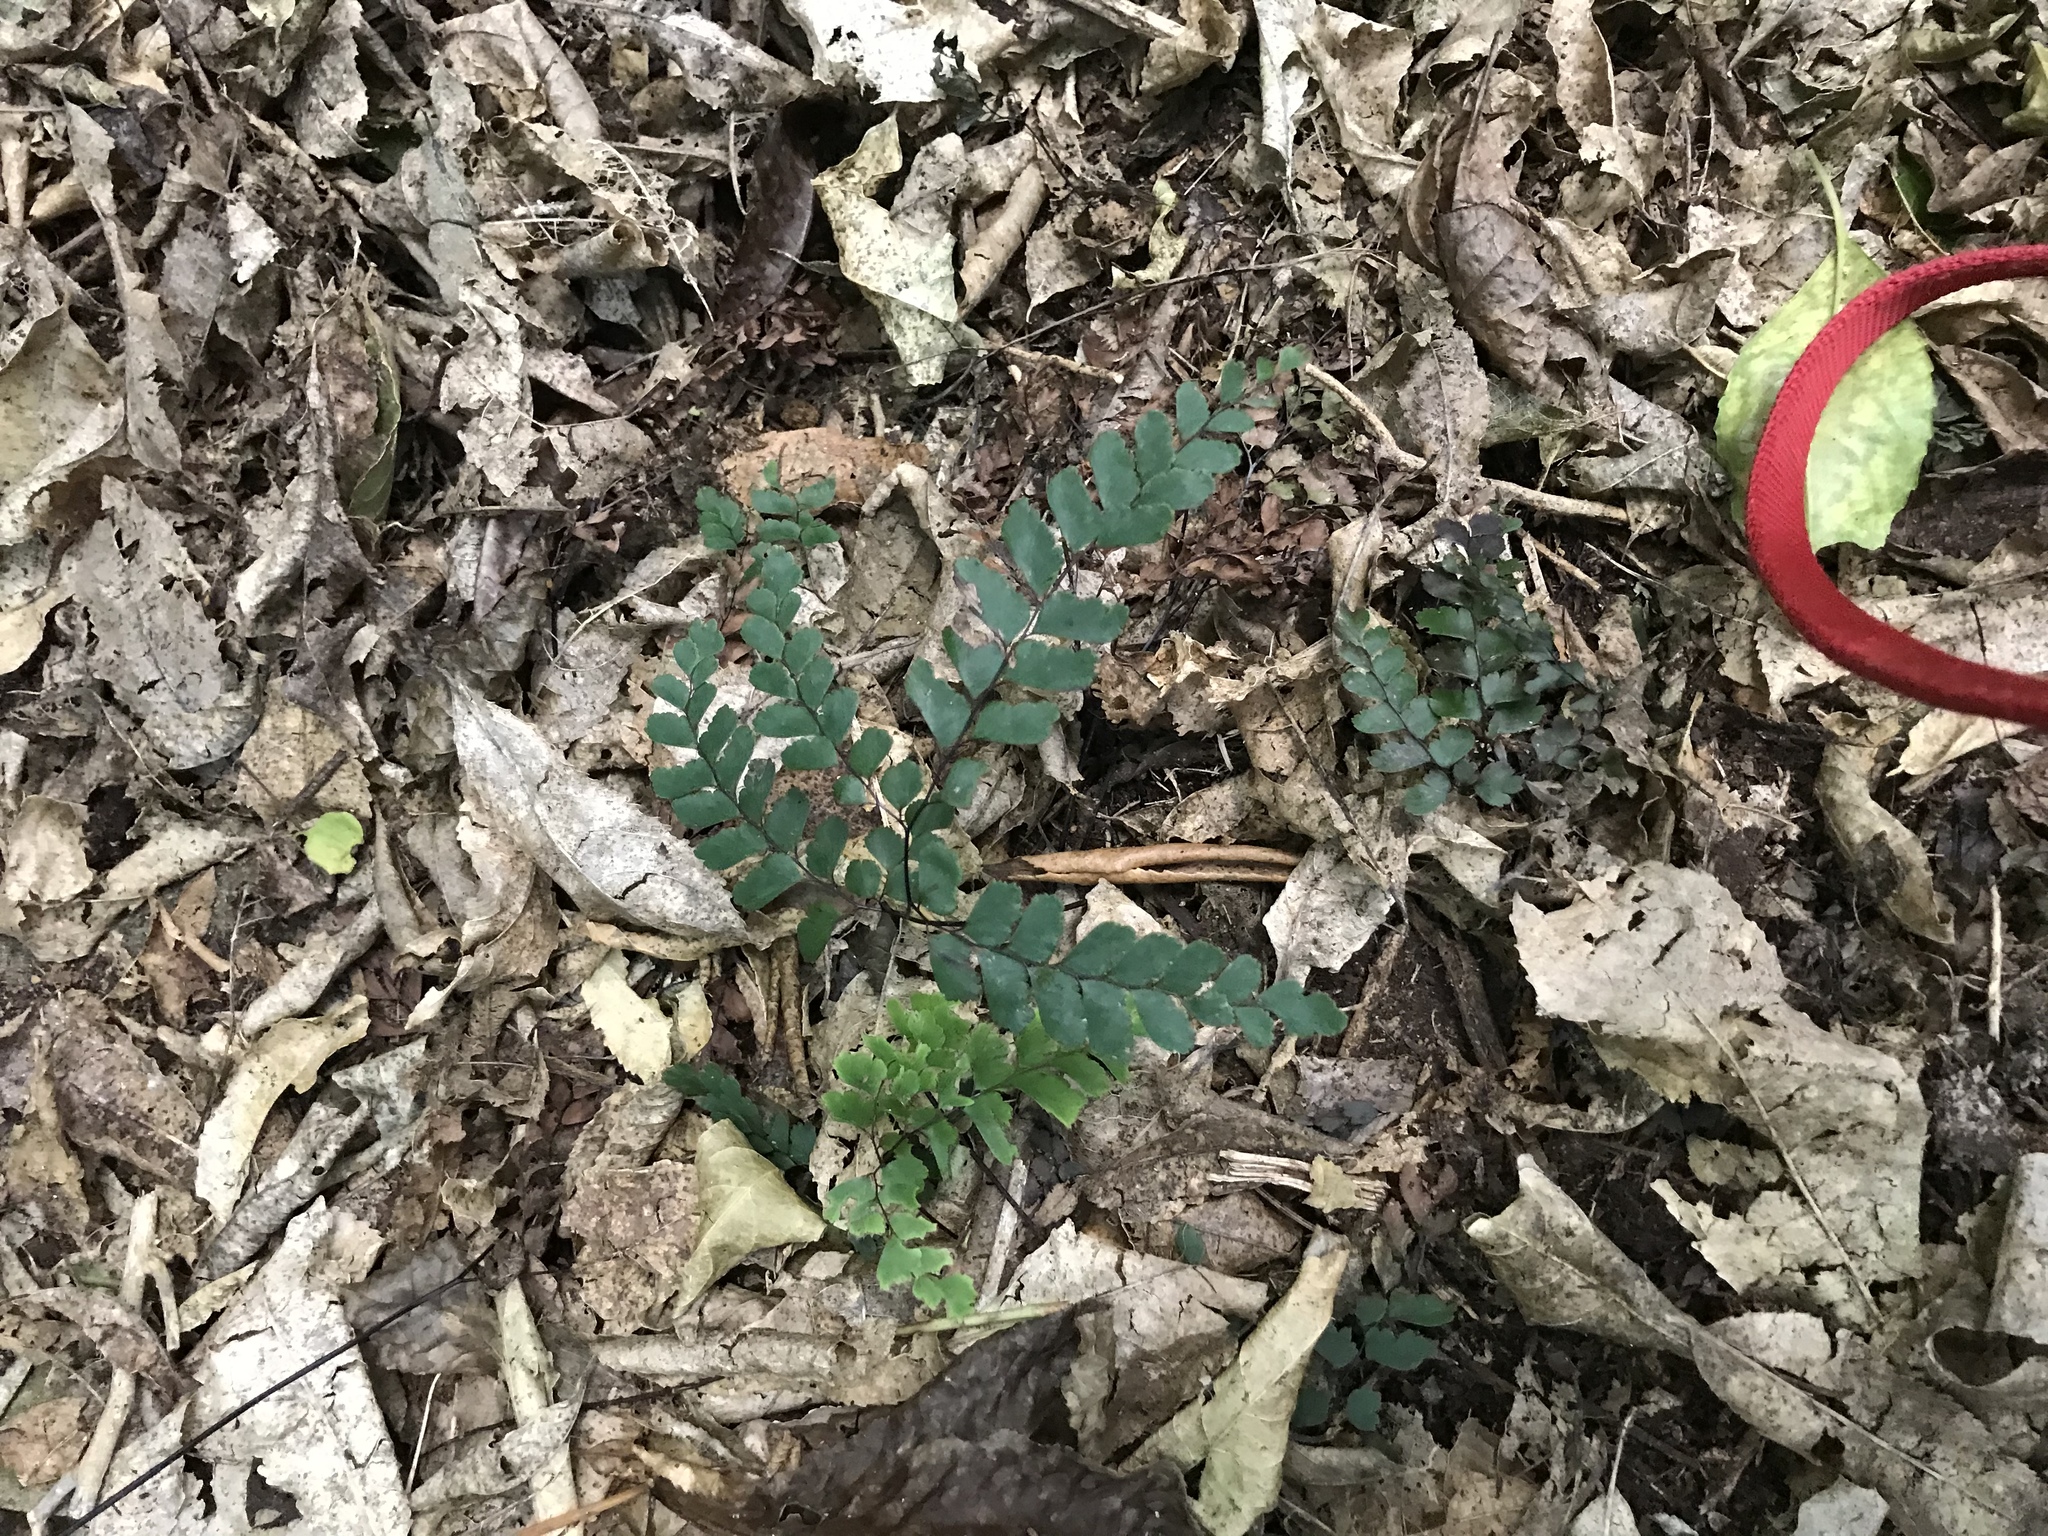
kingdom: Plantae
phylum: Tracheophyta
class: Polypodiopsida
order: Polypodiales
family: Pteridaceae
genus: Adiantum
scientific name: Adiantum cunninghamii
